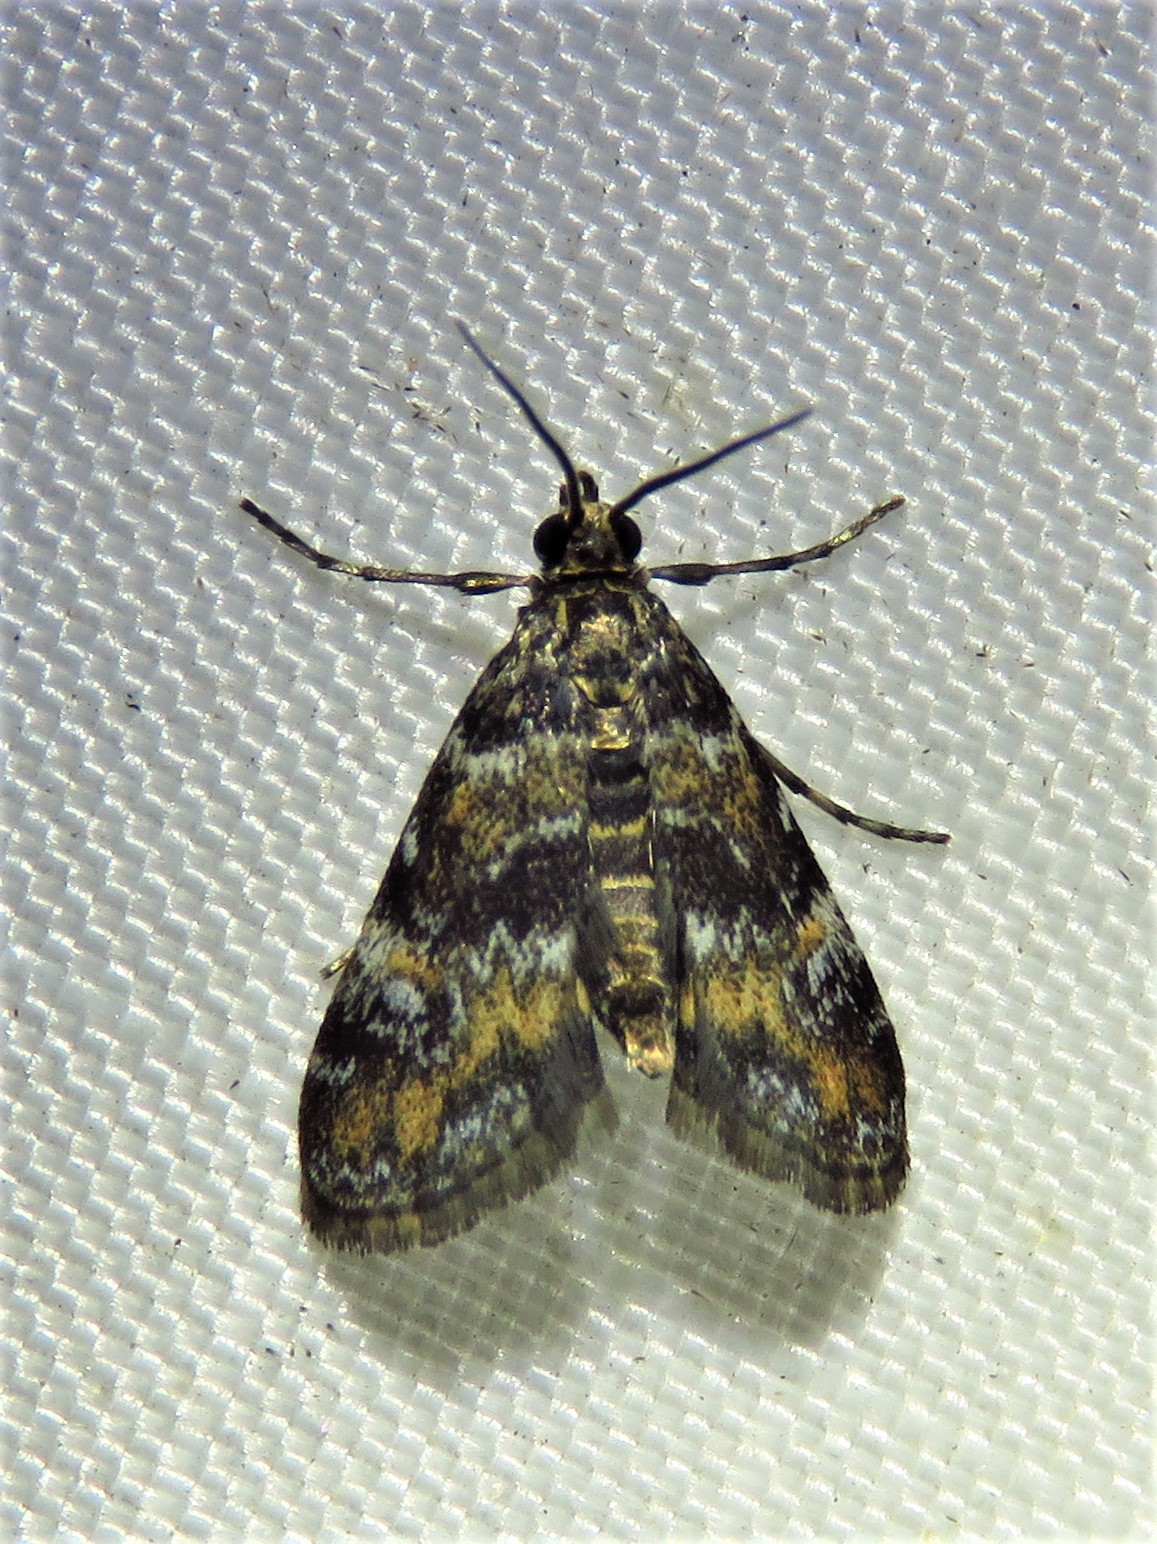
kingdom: Animalia
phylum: Arthropoda
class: Insecta
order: Lepidoptera
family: Crambidae
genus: Elophila
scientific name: Elophila obliteralis
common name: Waterlily leafcutter moth
